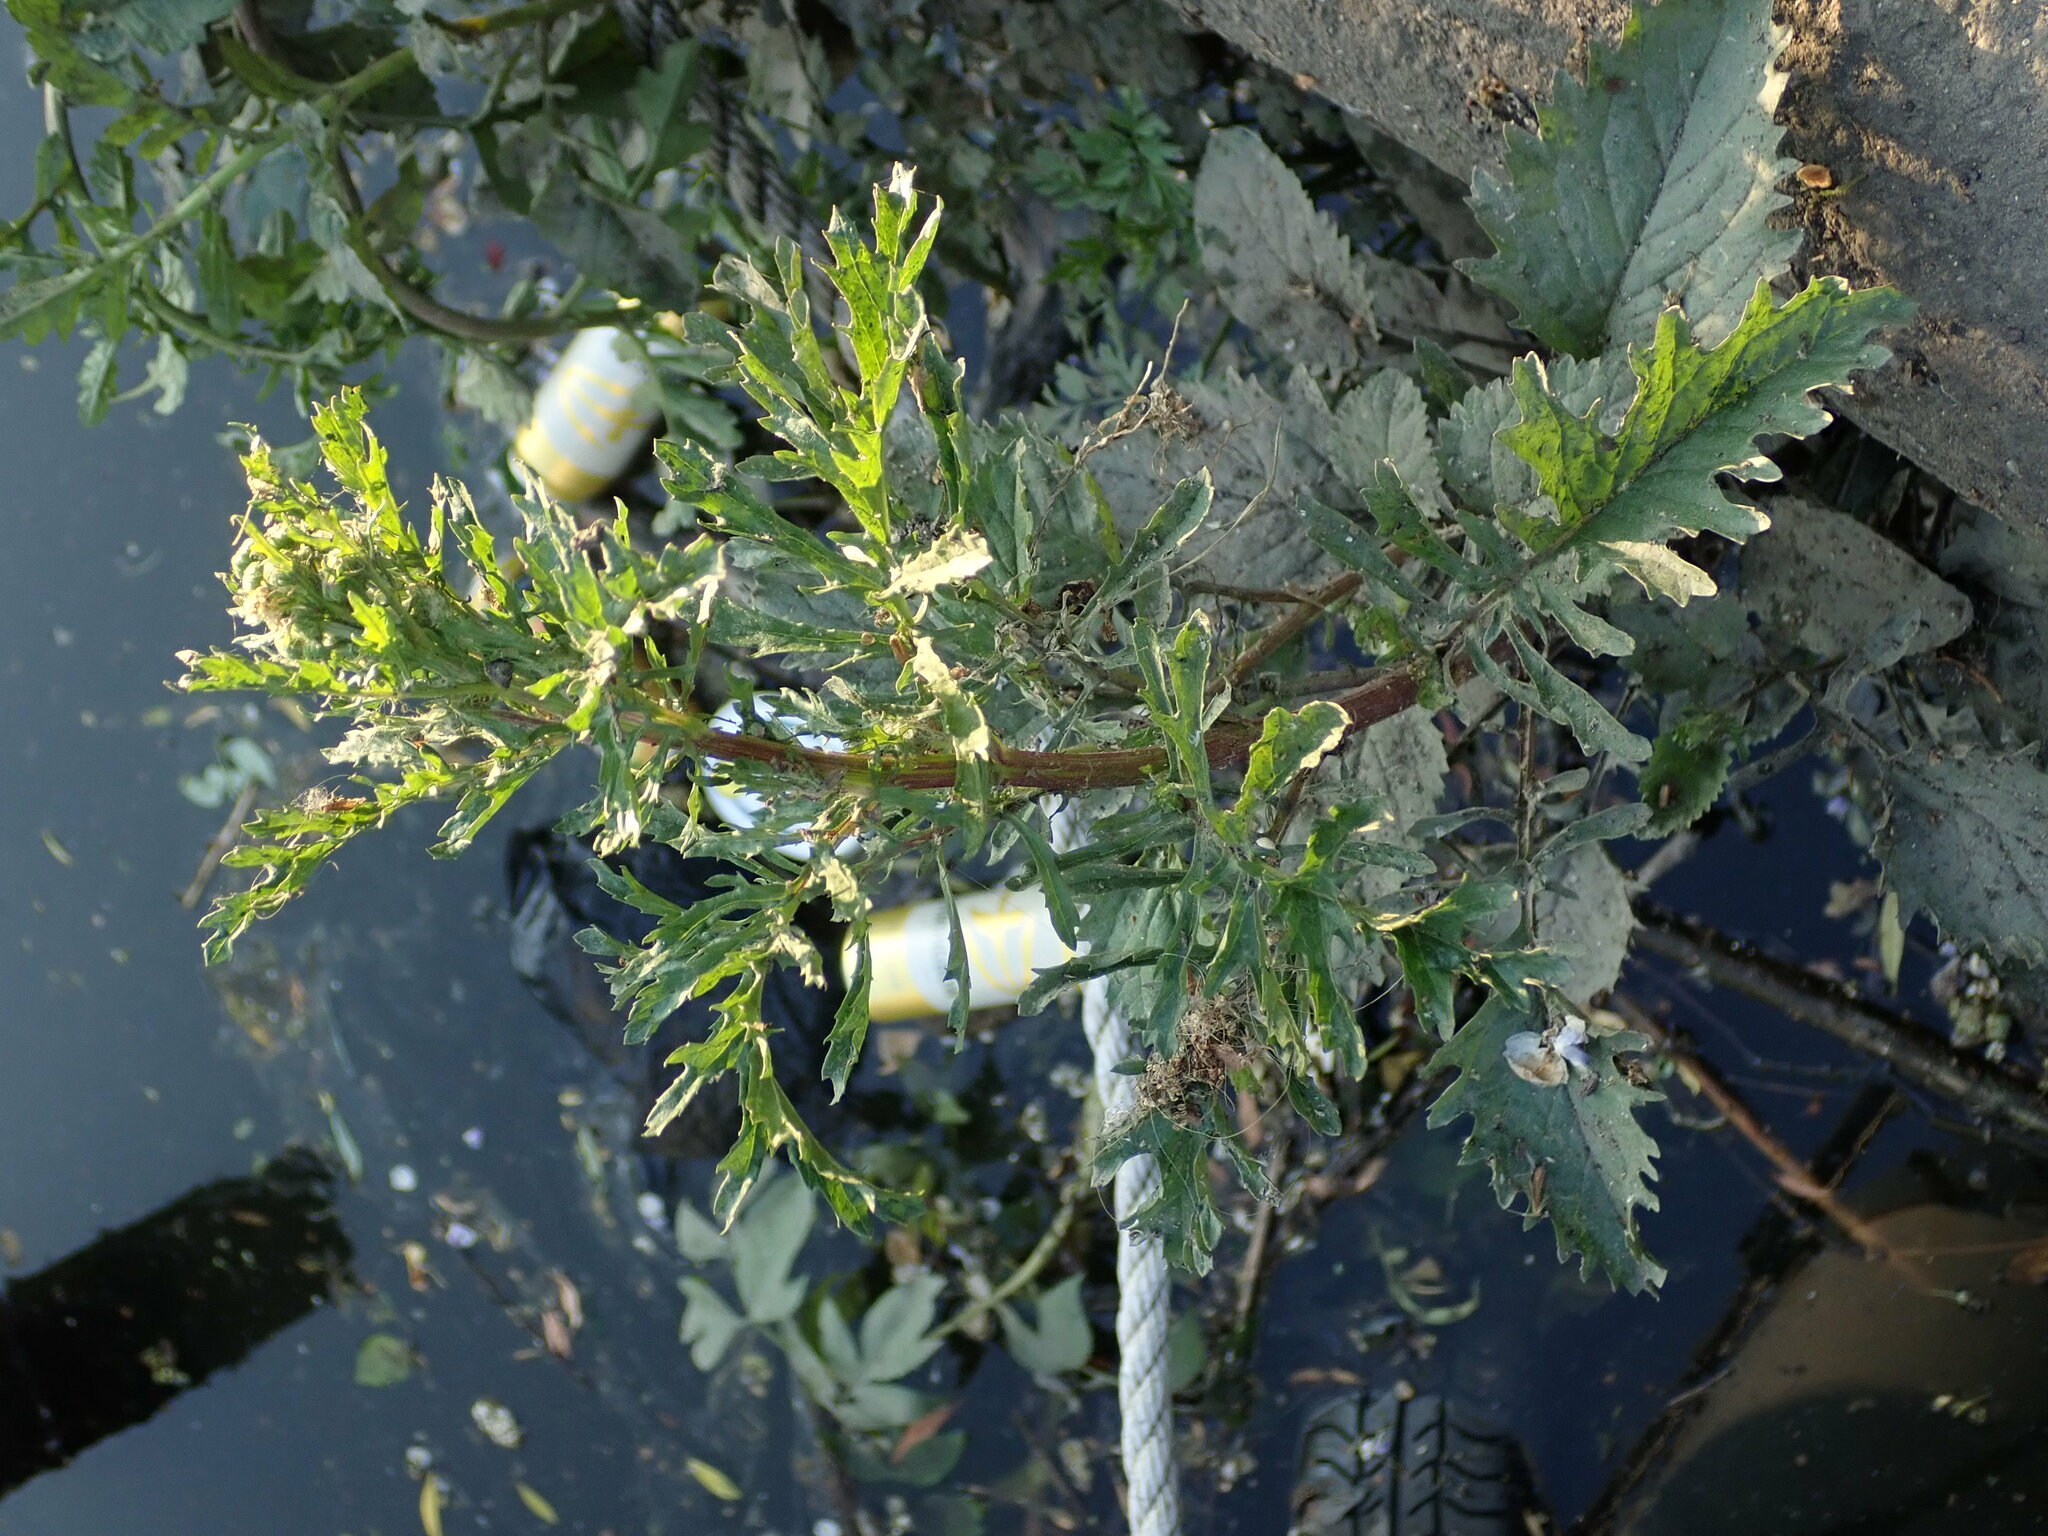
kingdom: Plantae
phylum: Tracheophyta
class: Magnoliopsida
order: Asterales
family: Asteraceae
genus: Jacobaea
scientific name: Jacobaea aquatica
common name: Water ragwort
